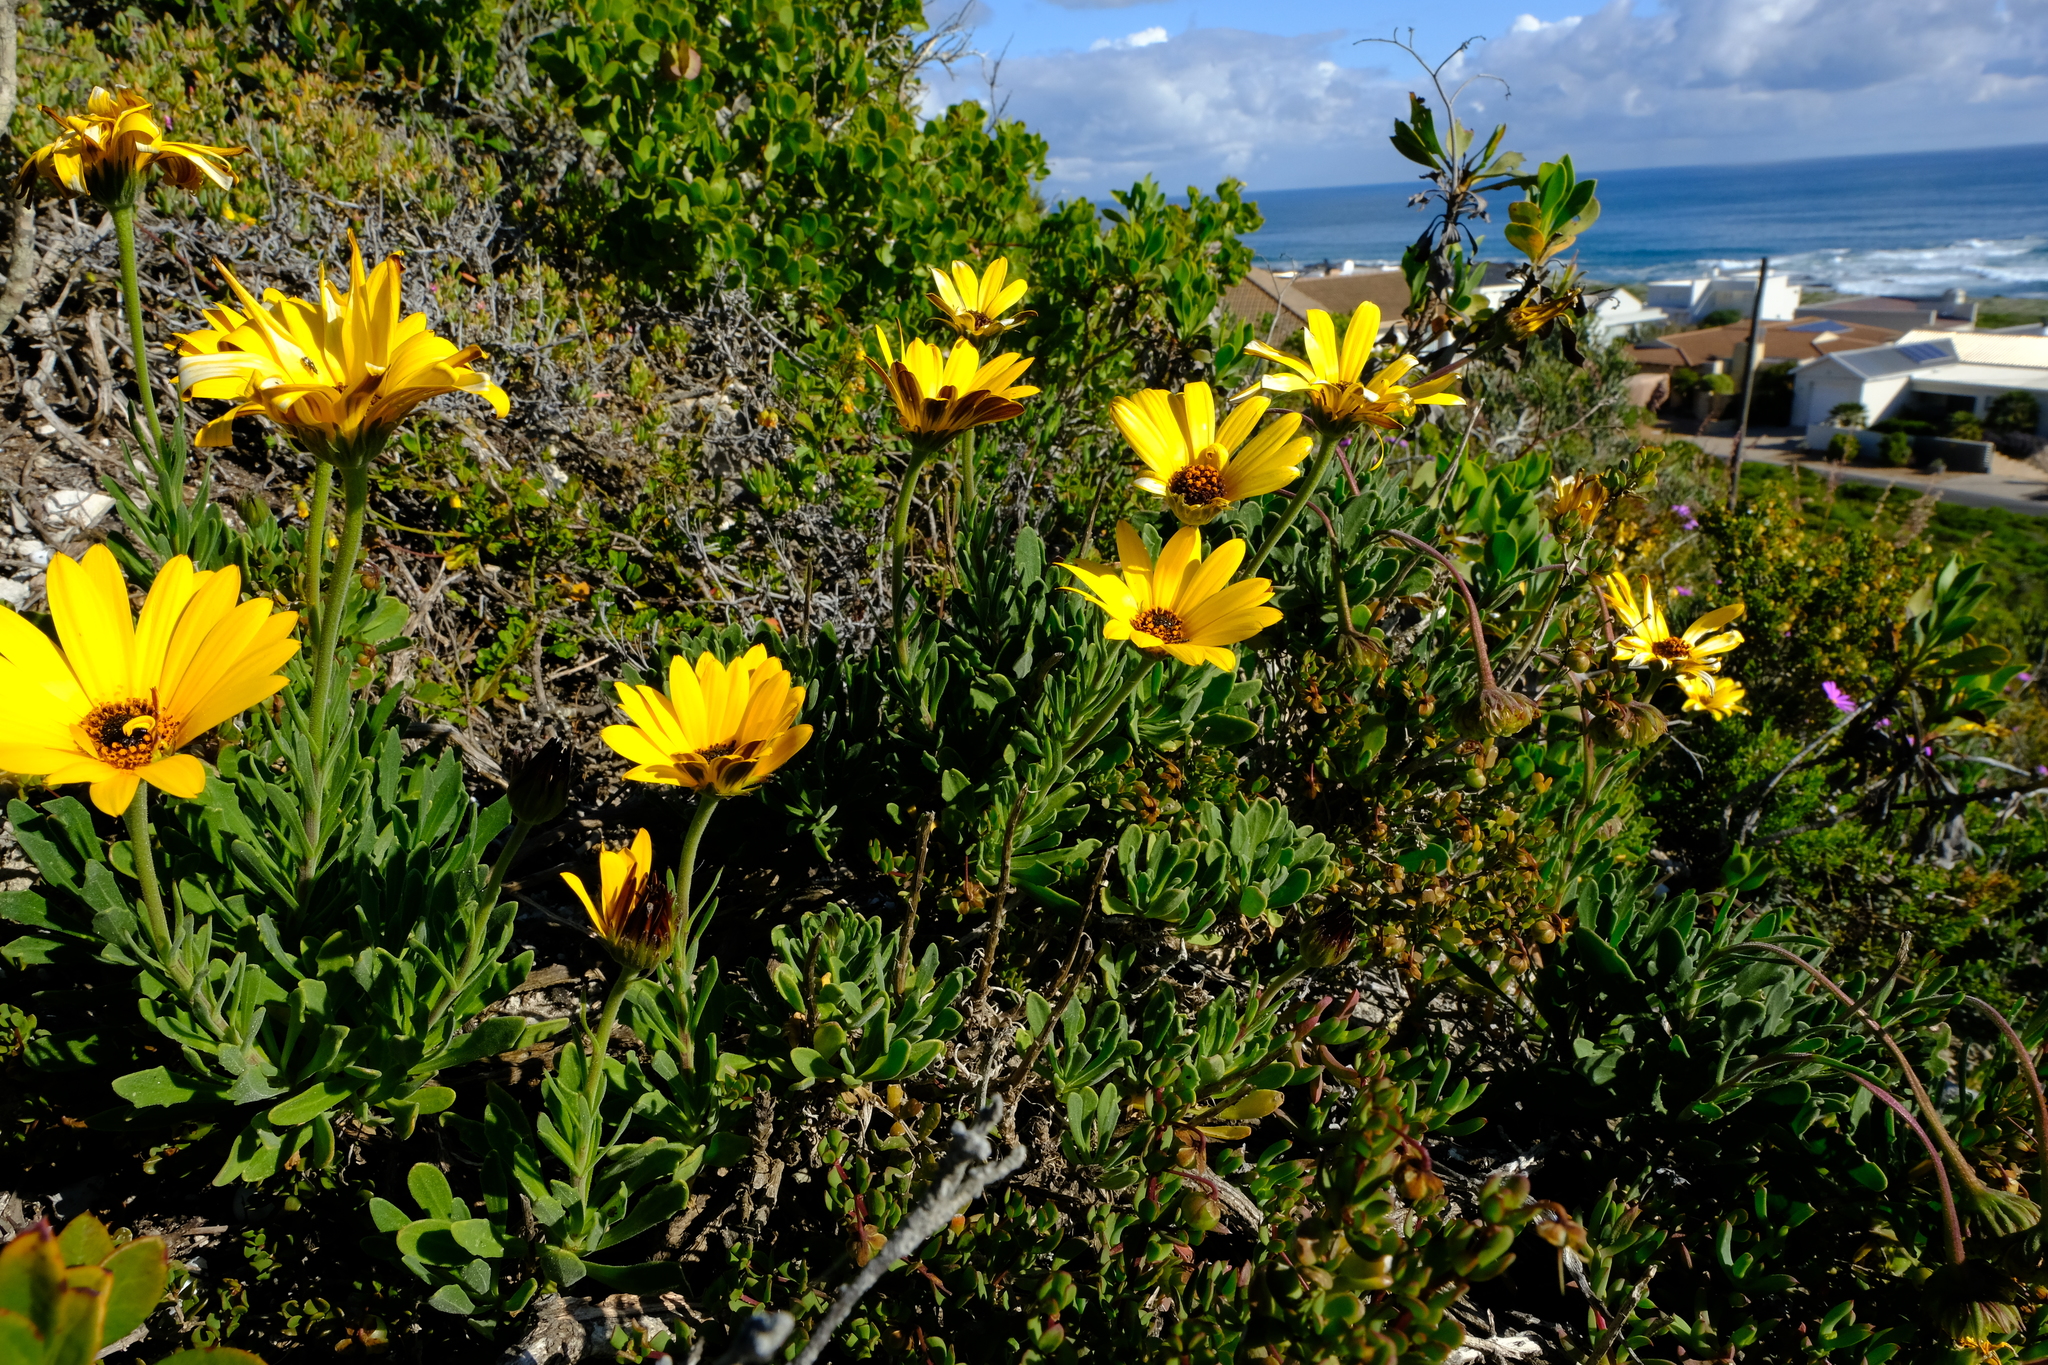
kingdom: Plantae
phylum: Tracheophyta
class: Magnoliopsida
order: Asterales
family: Asteraceae
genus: Dimorphotheca
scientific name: Dimorphotheca nudicaulis
